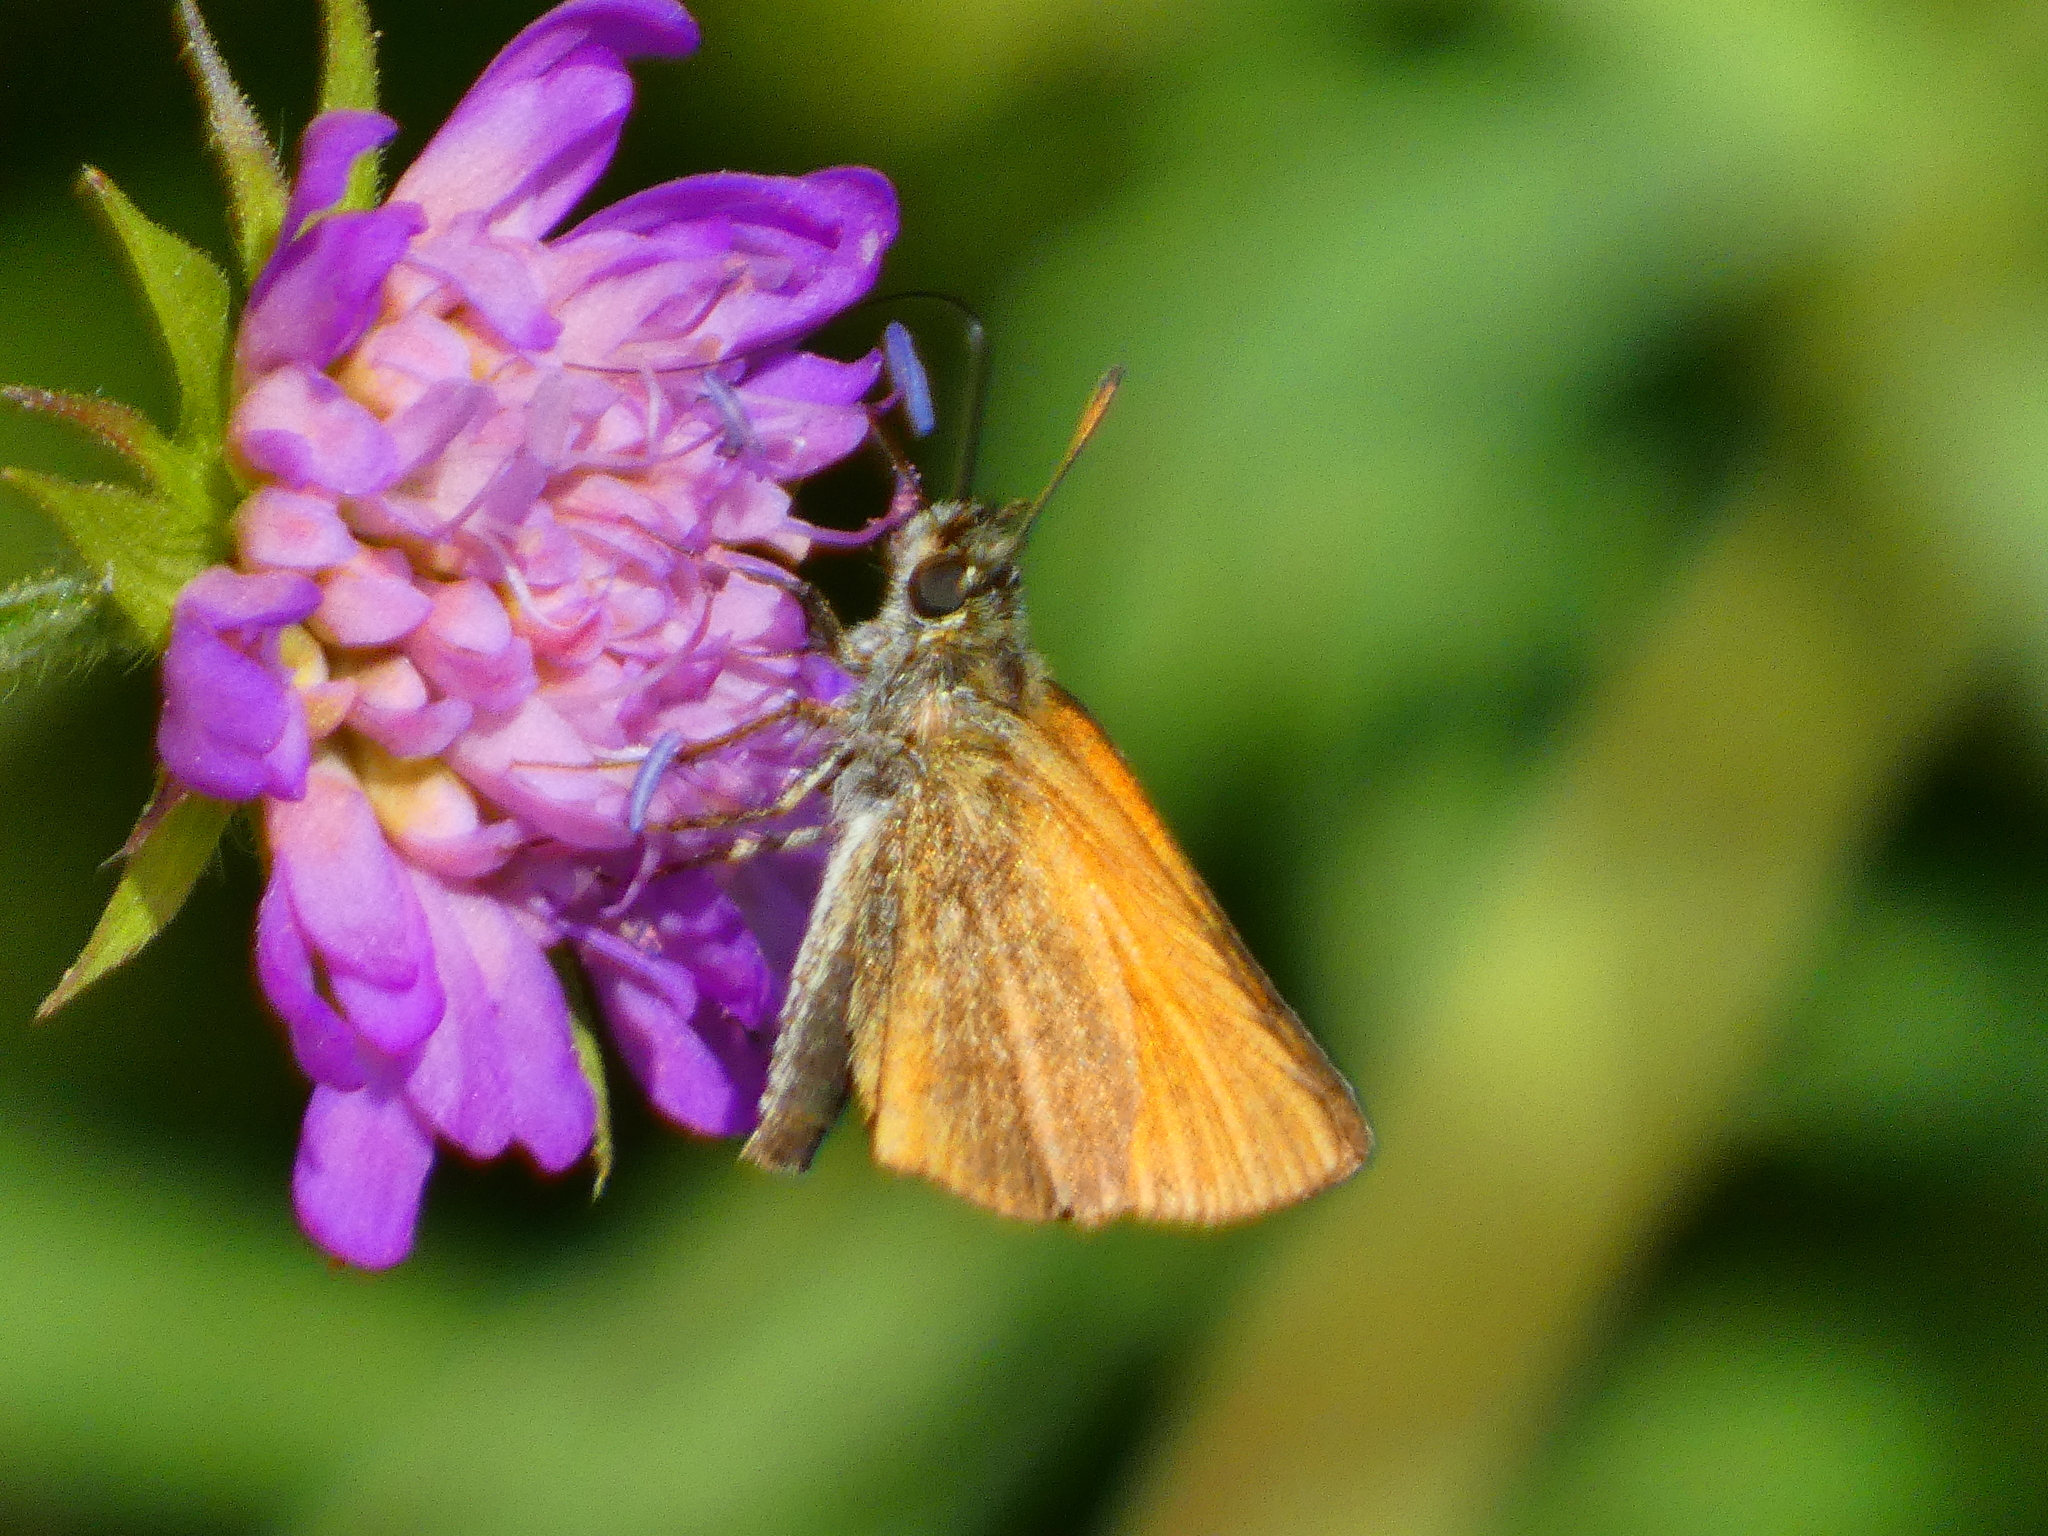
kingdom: Animalia
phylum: Arthropoda
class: Insecta
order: Lepidoptera
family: Hesperiidae
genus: Thymelicus
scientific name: Thymelicus lineola
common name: Essex skipper
